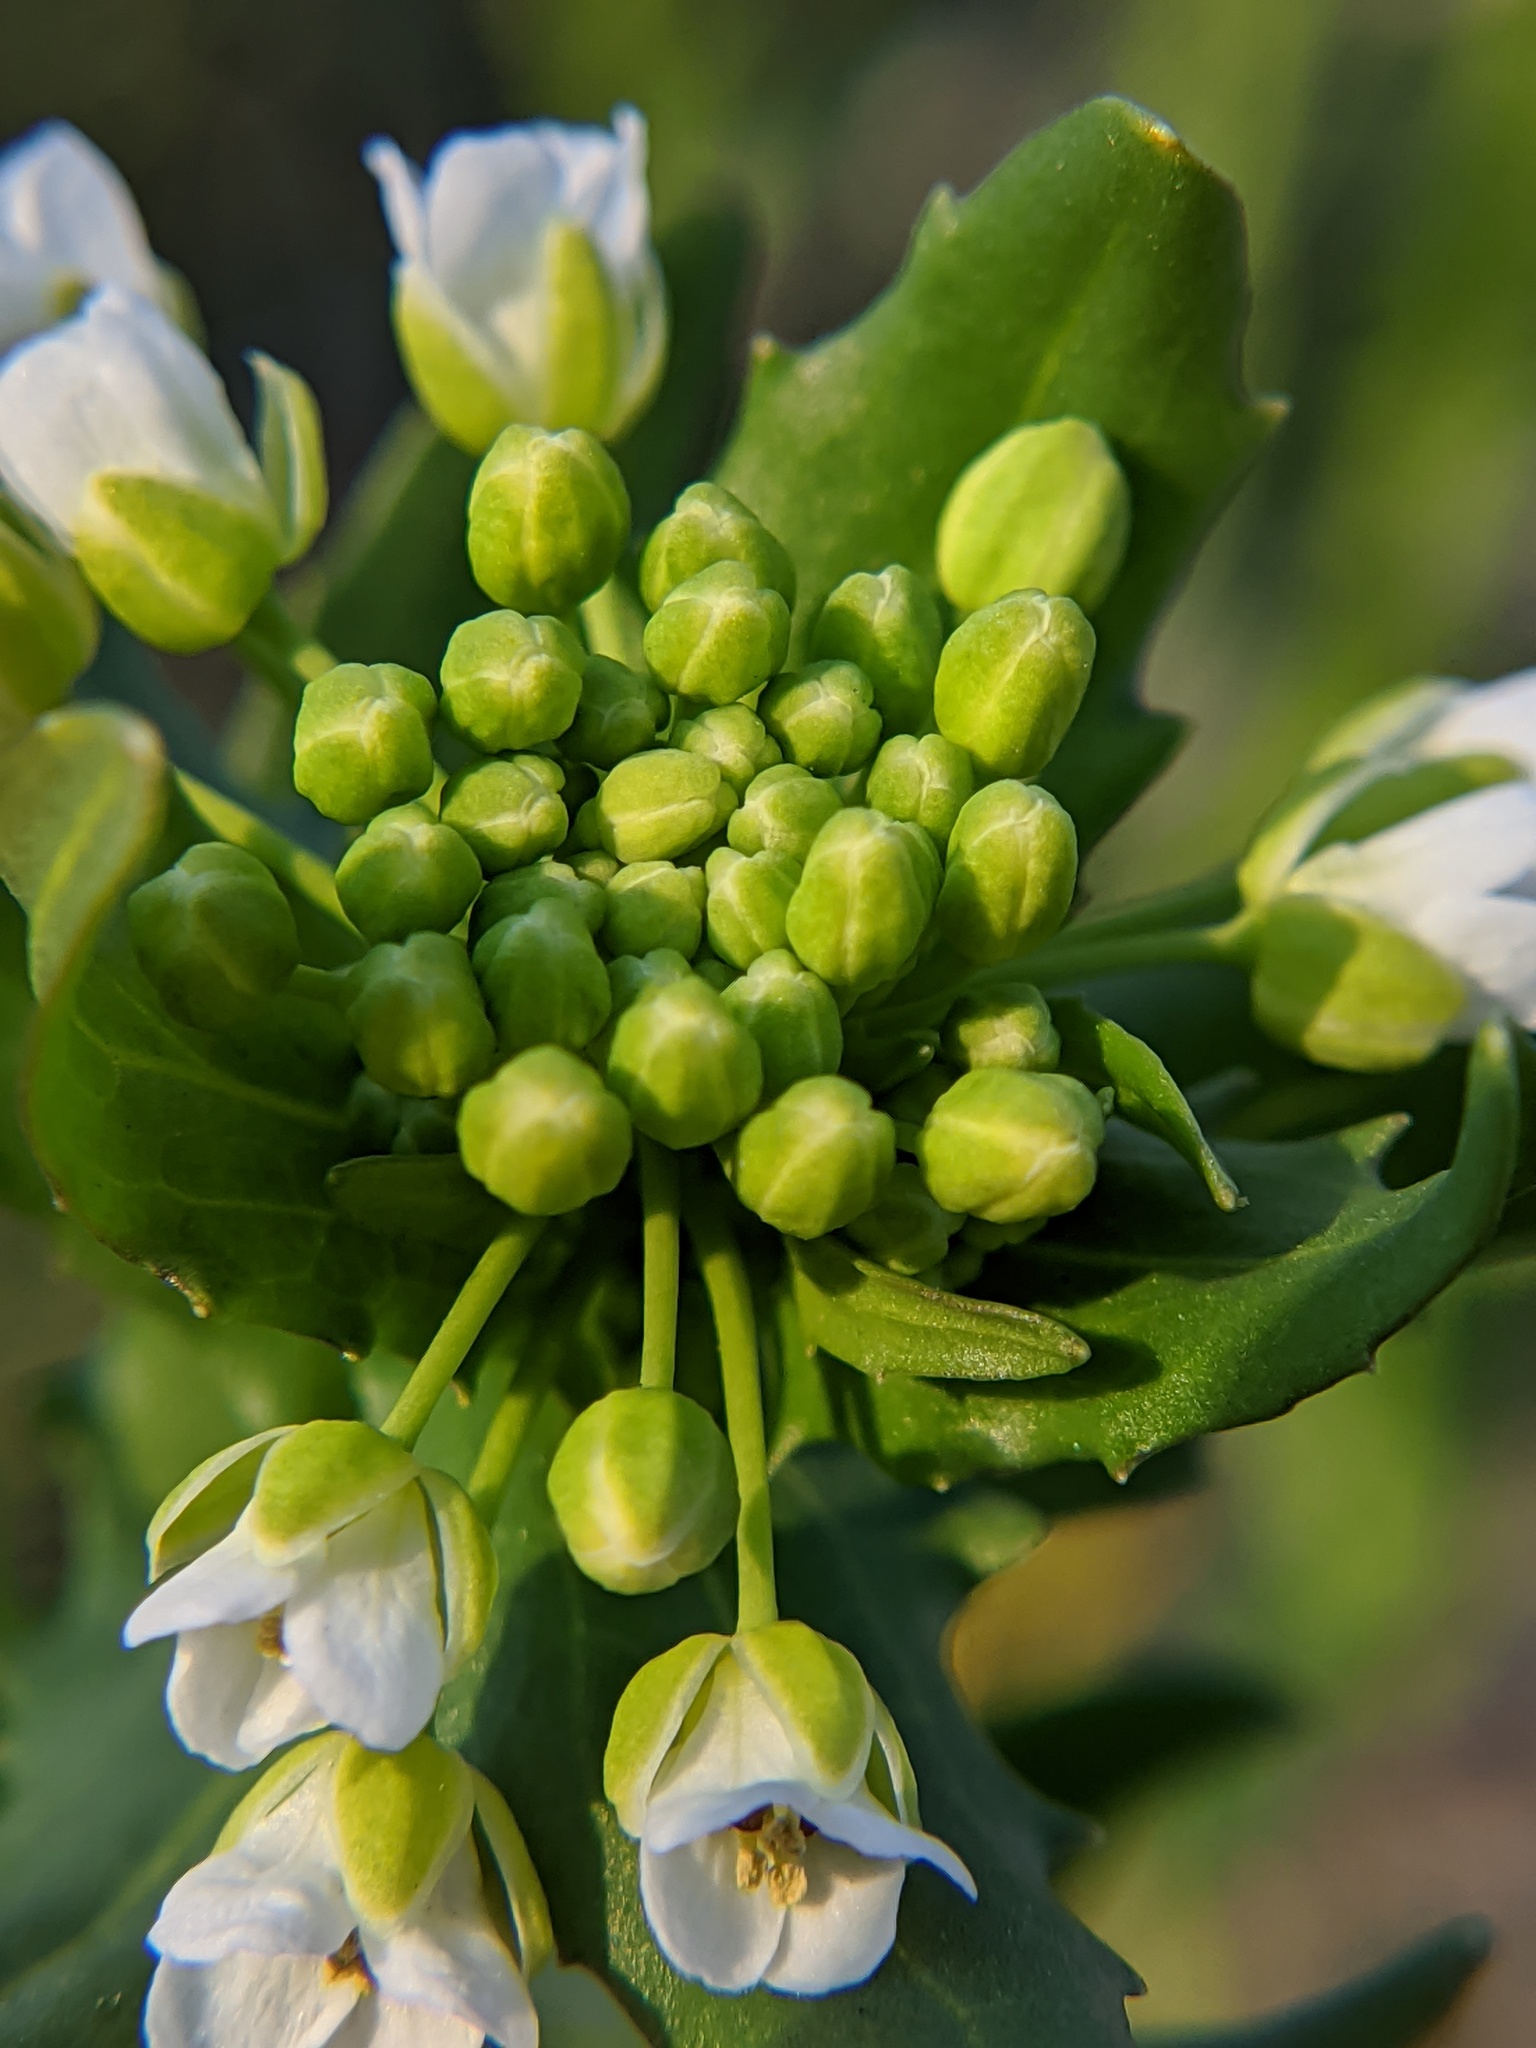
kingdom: Plantae
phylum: Tracheophyta
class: Magnoliopsida
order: Brassicales
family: Brassicaceae
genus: Thlaspi
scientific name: Thlaspi arvense
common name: Field pennycress
